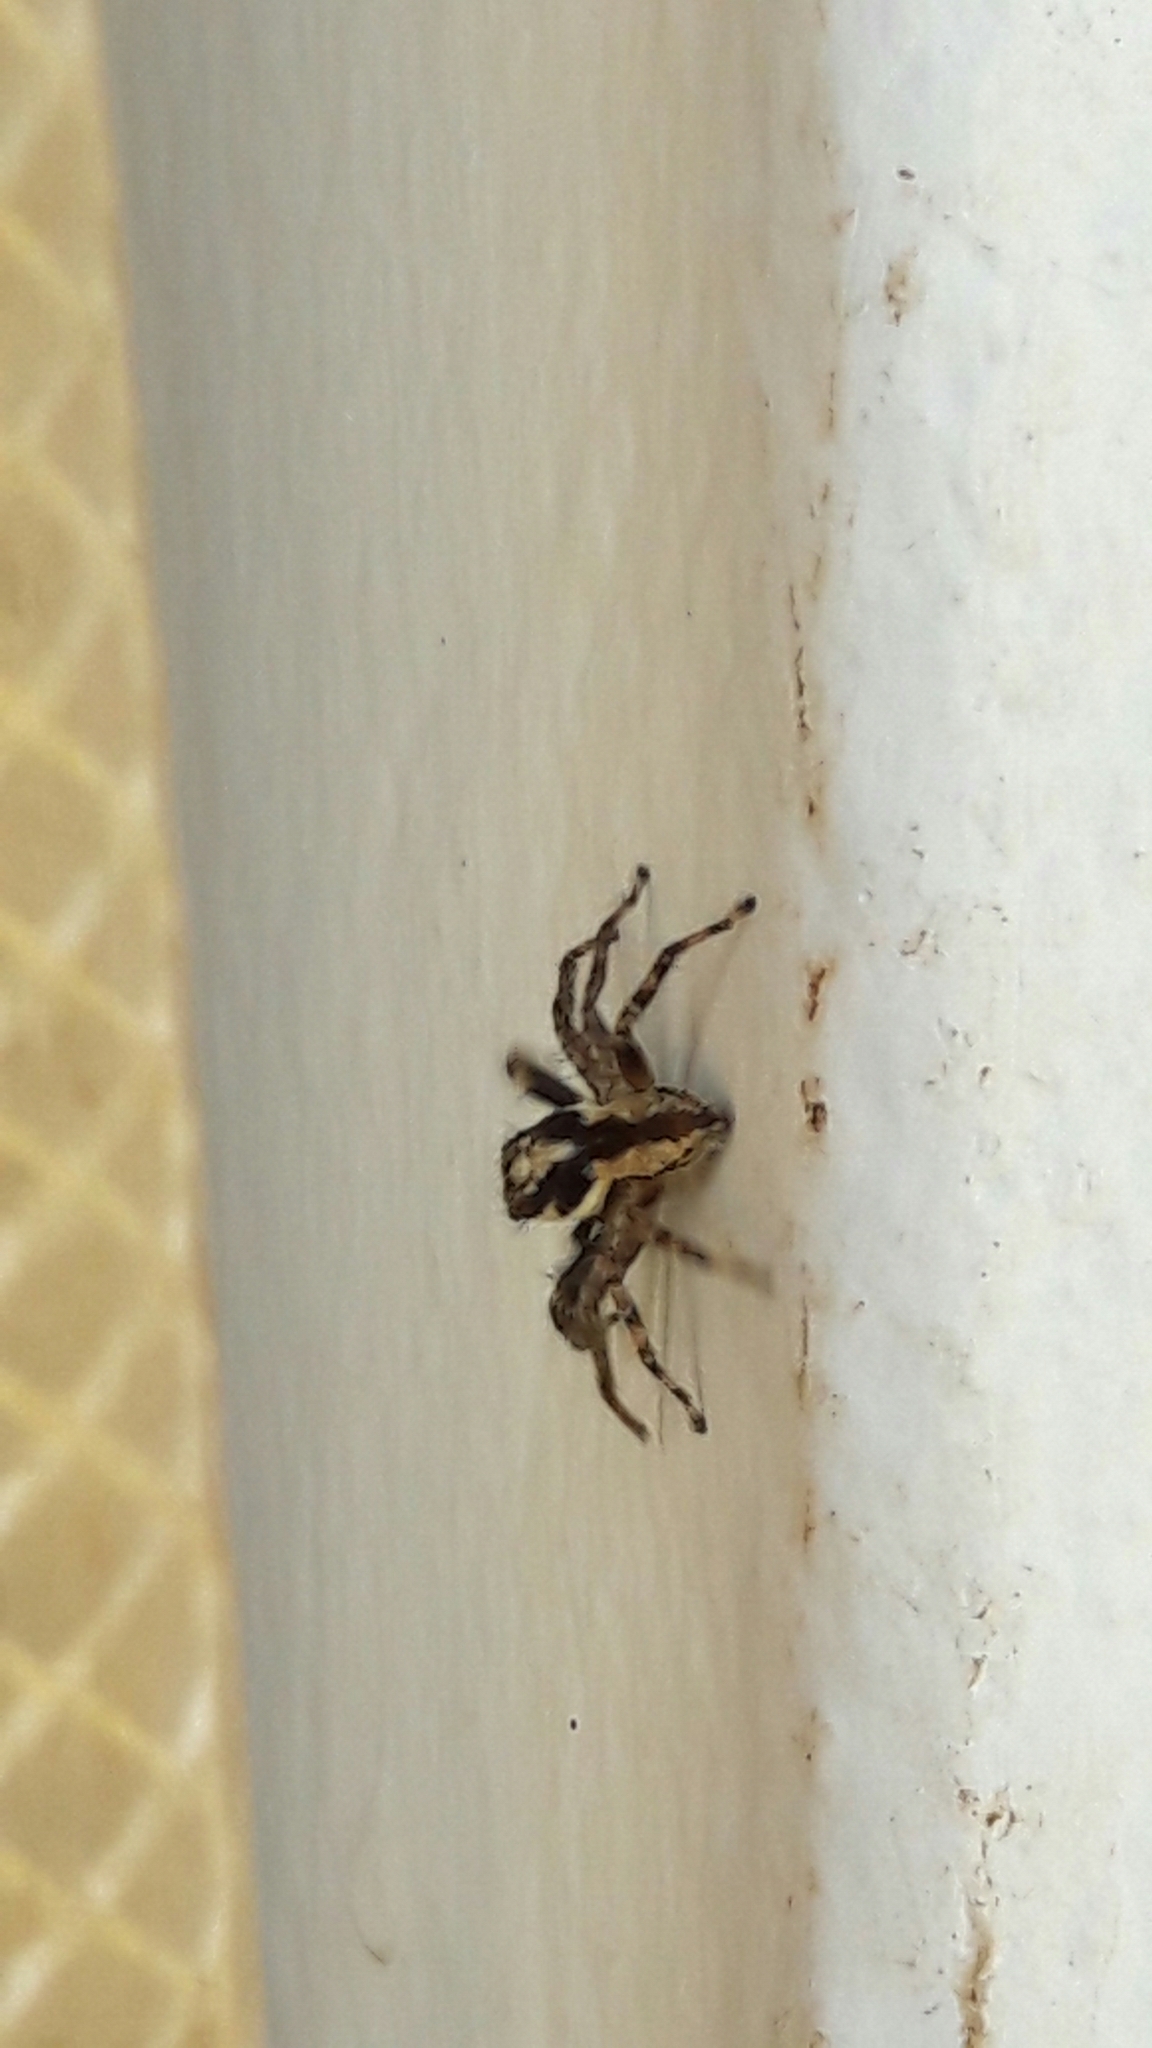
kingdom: Animalia
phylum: Arthropoda
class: Arachnida
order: Araneae
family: Salticidae
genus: Menemerus
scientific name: Menemerus bivittatus
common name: Gray wall jumper
